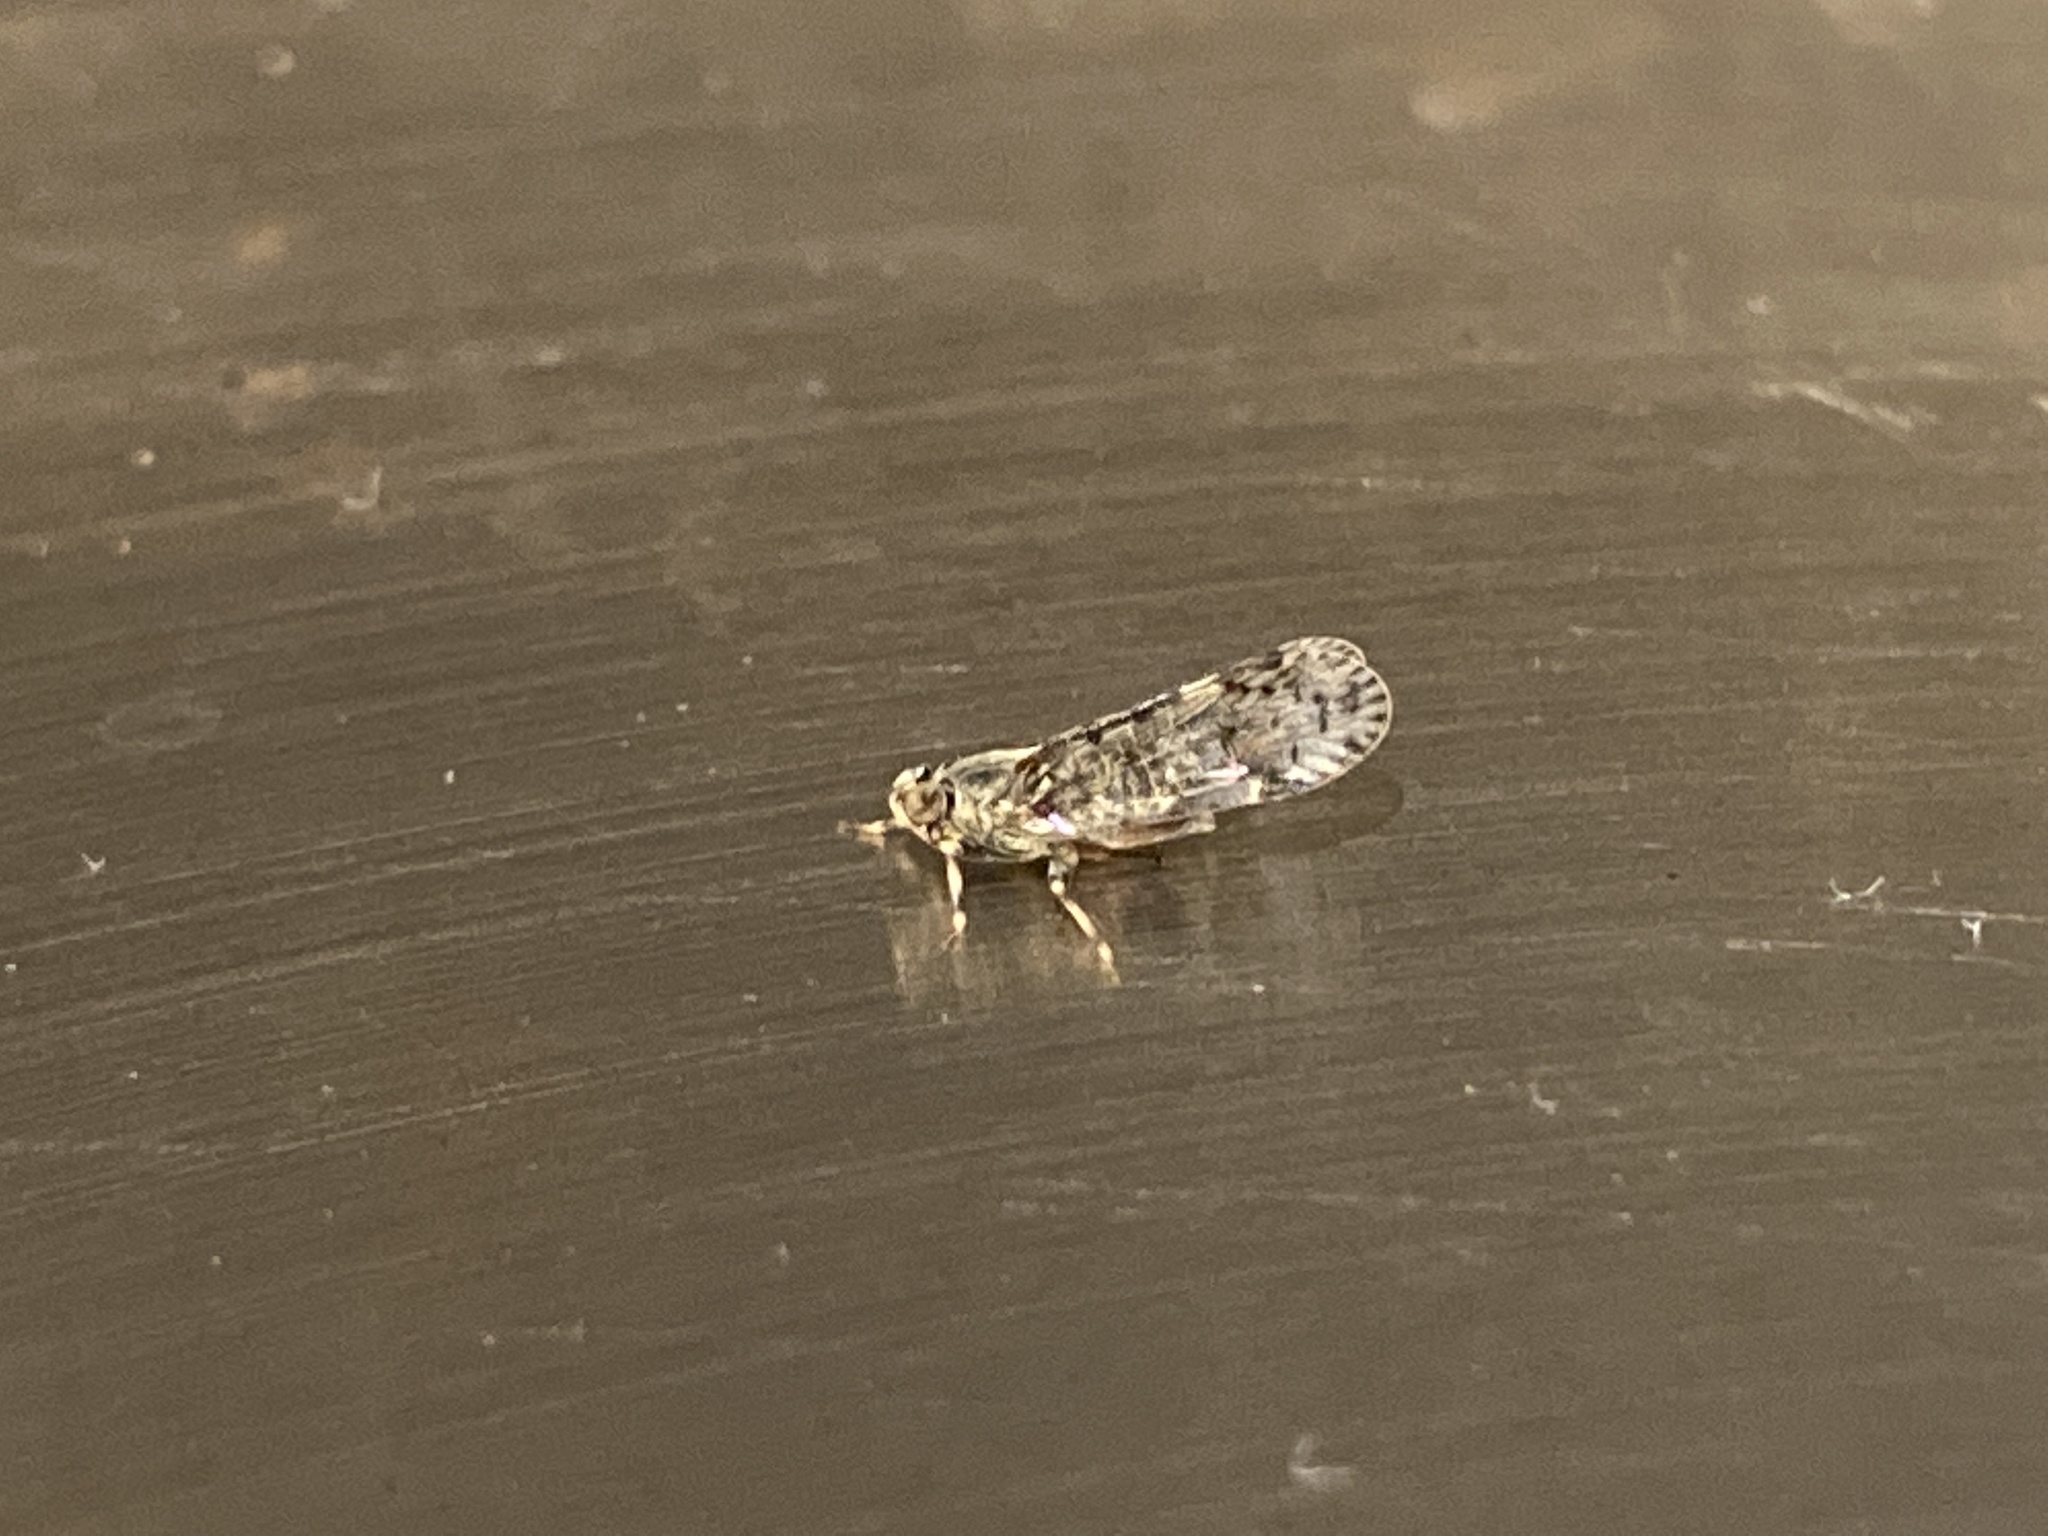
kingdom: Animalia
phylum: Arthropoda
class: Insecta
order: Hemiptera
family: Cixiidae
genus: Melanoliarus
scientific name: Melanoliarus placitus
